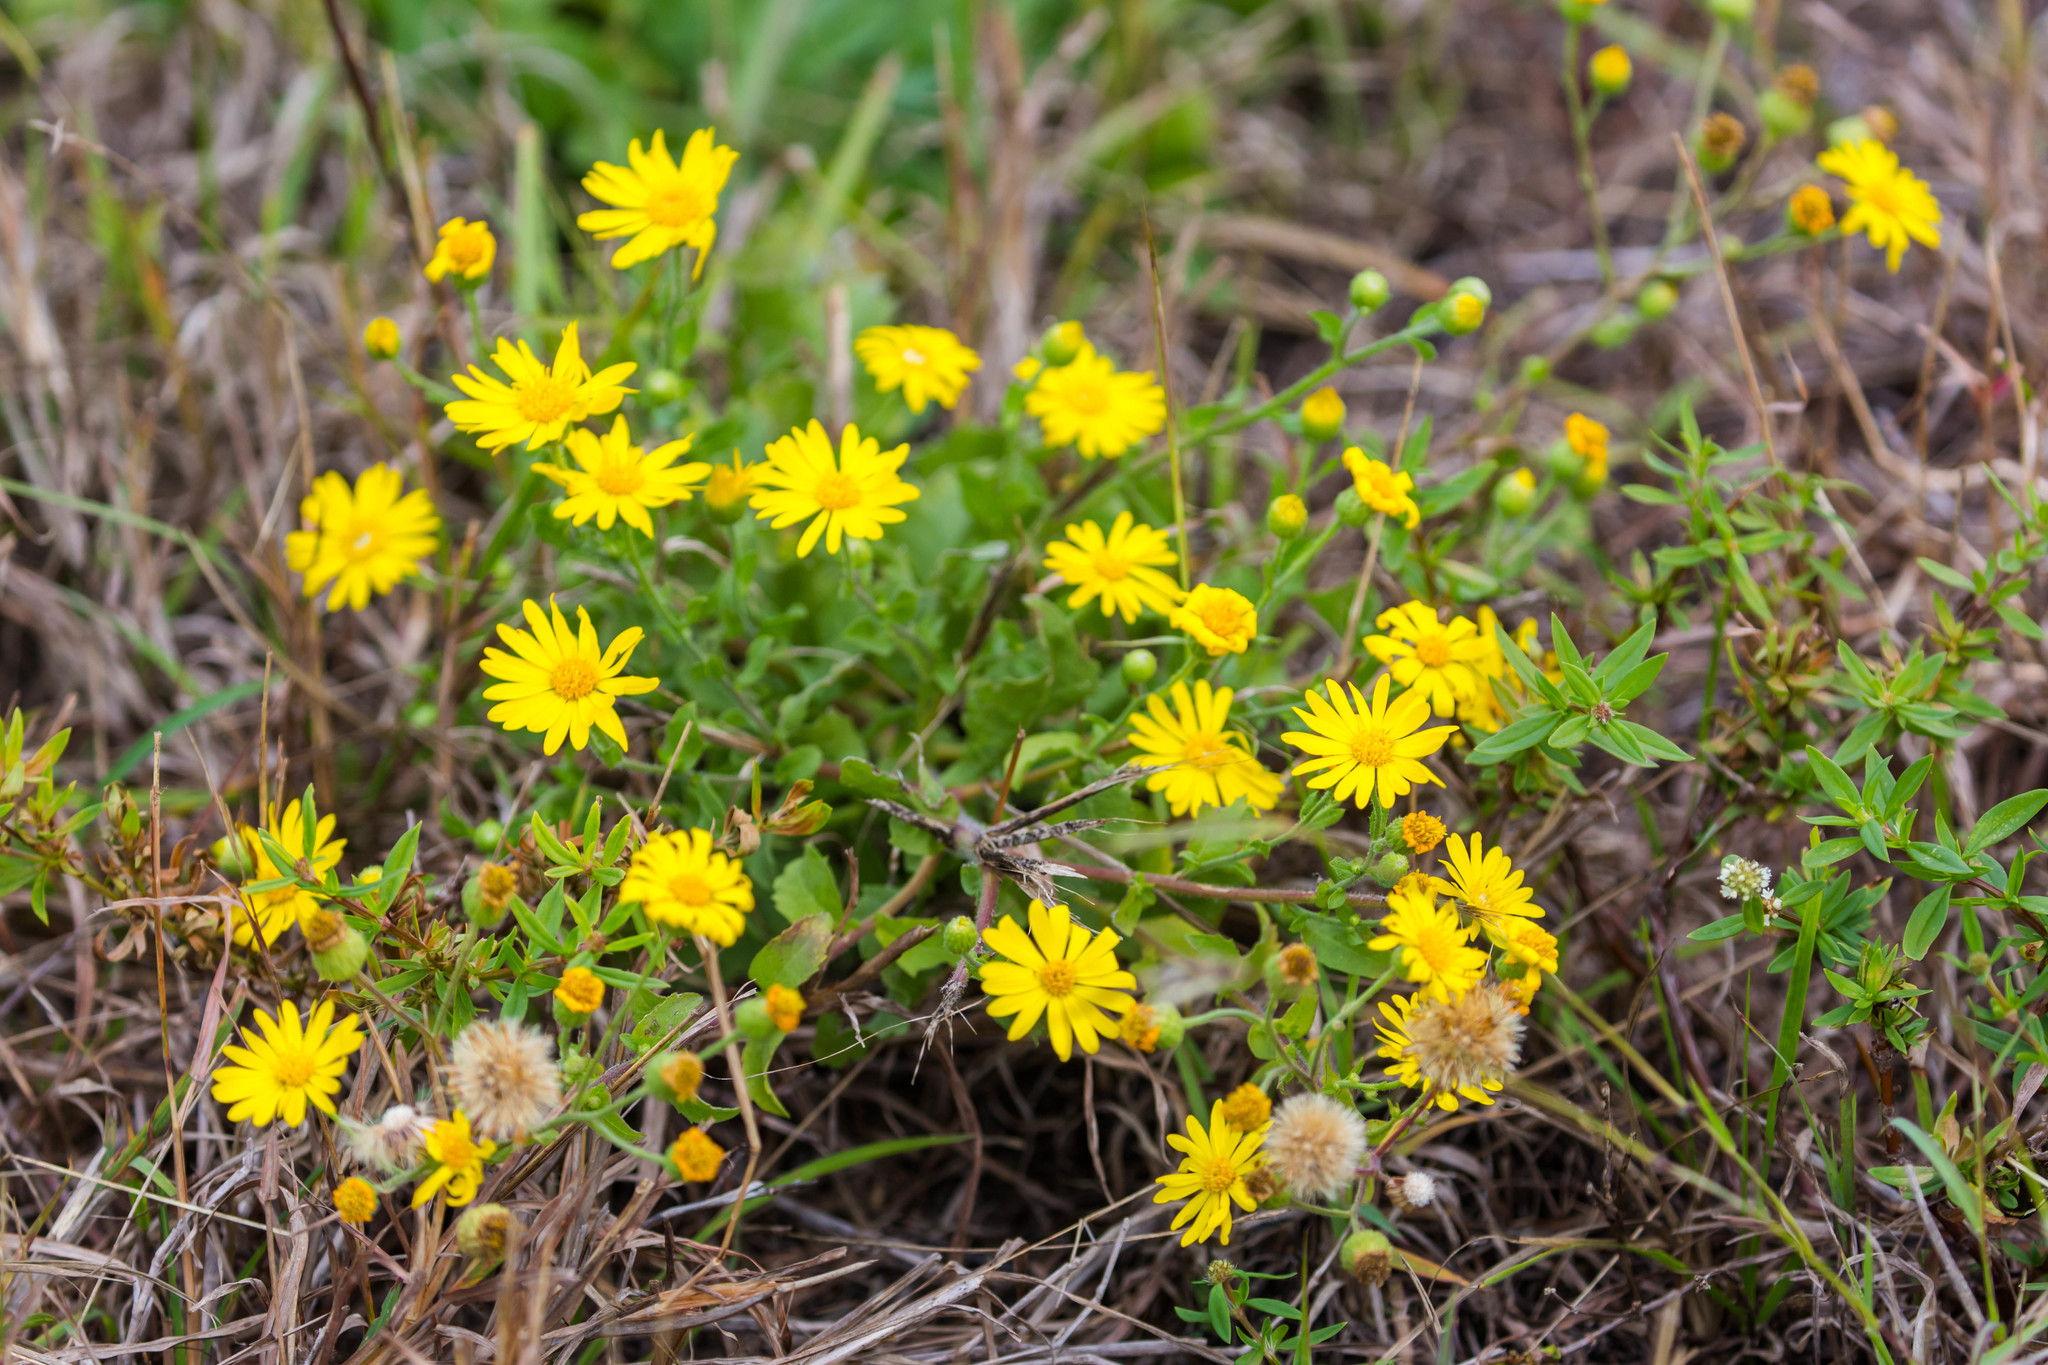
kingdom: Plantae
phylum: Tracheophyta
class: Magnoliopsida
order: Asterales
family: Asteraceae
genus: Heterotheca
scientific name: Heterotheca subaxillaris
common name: Camphorweed
